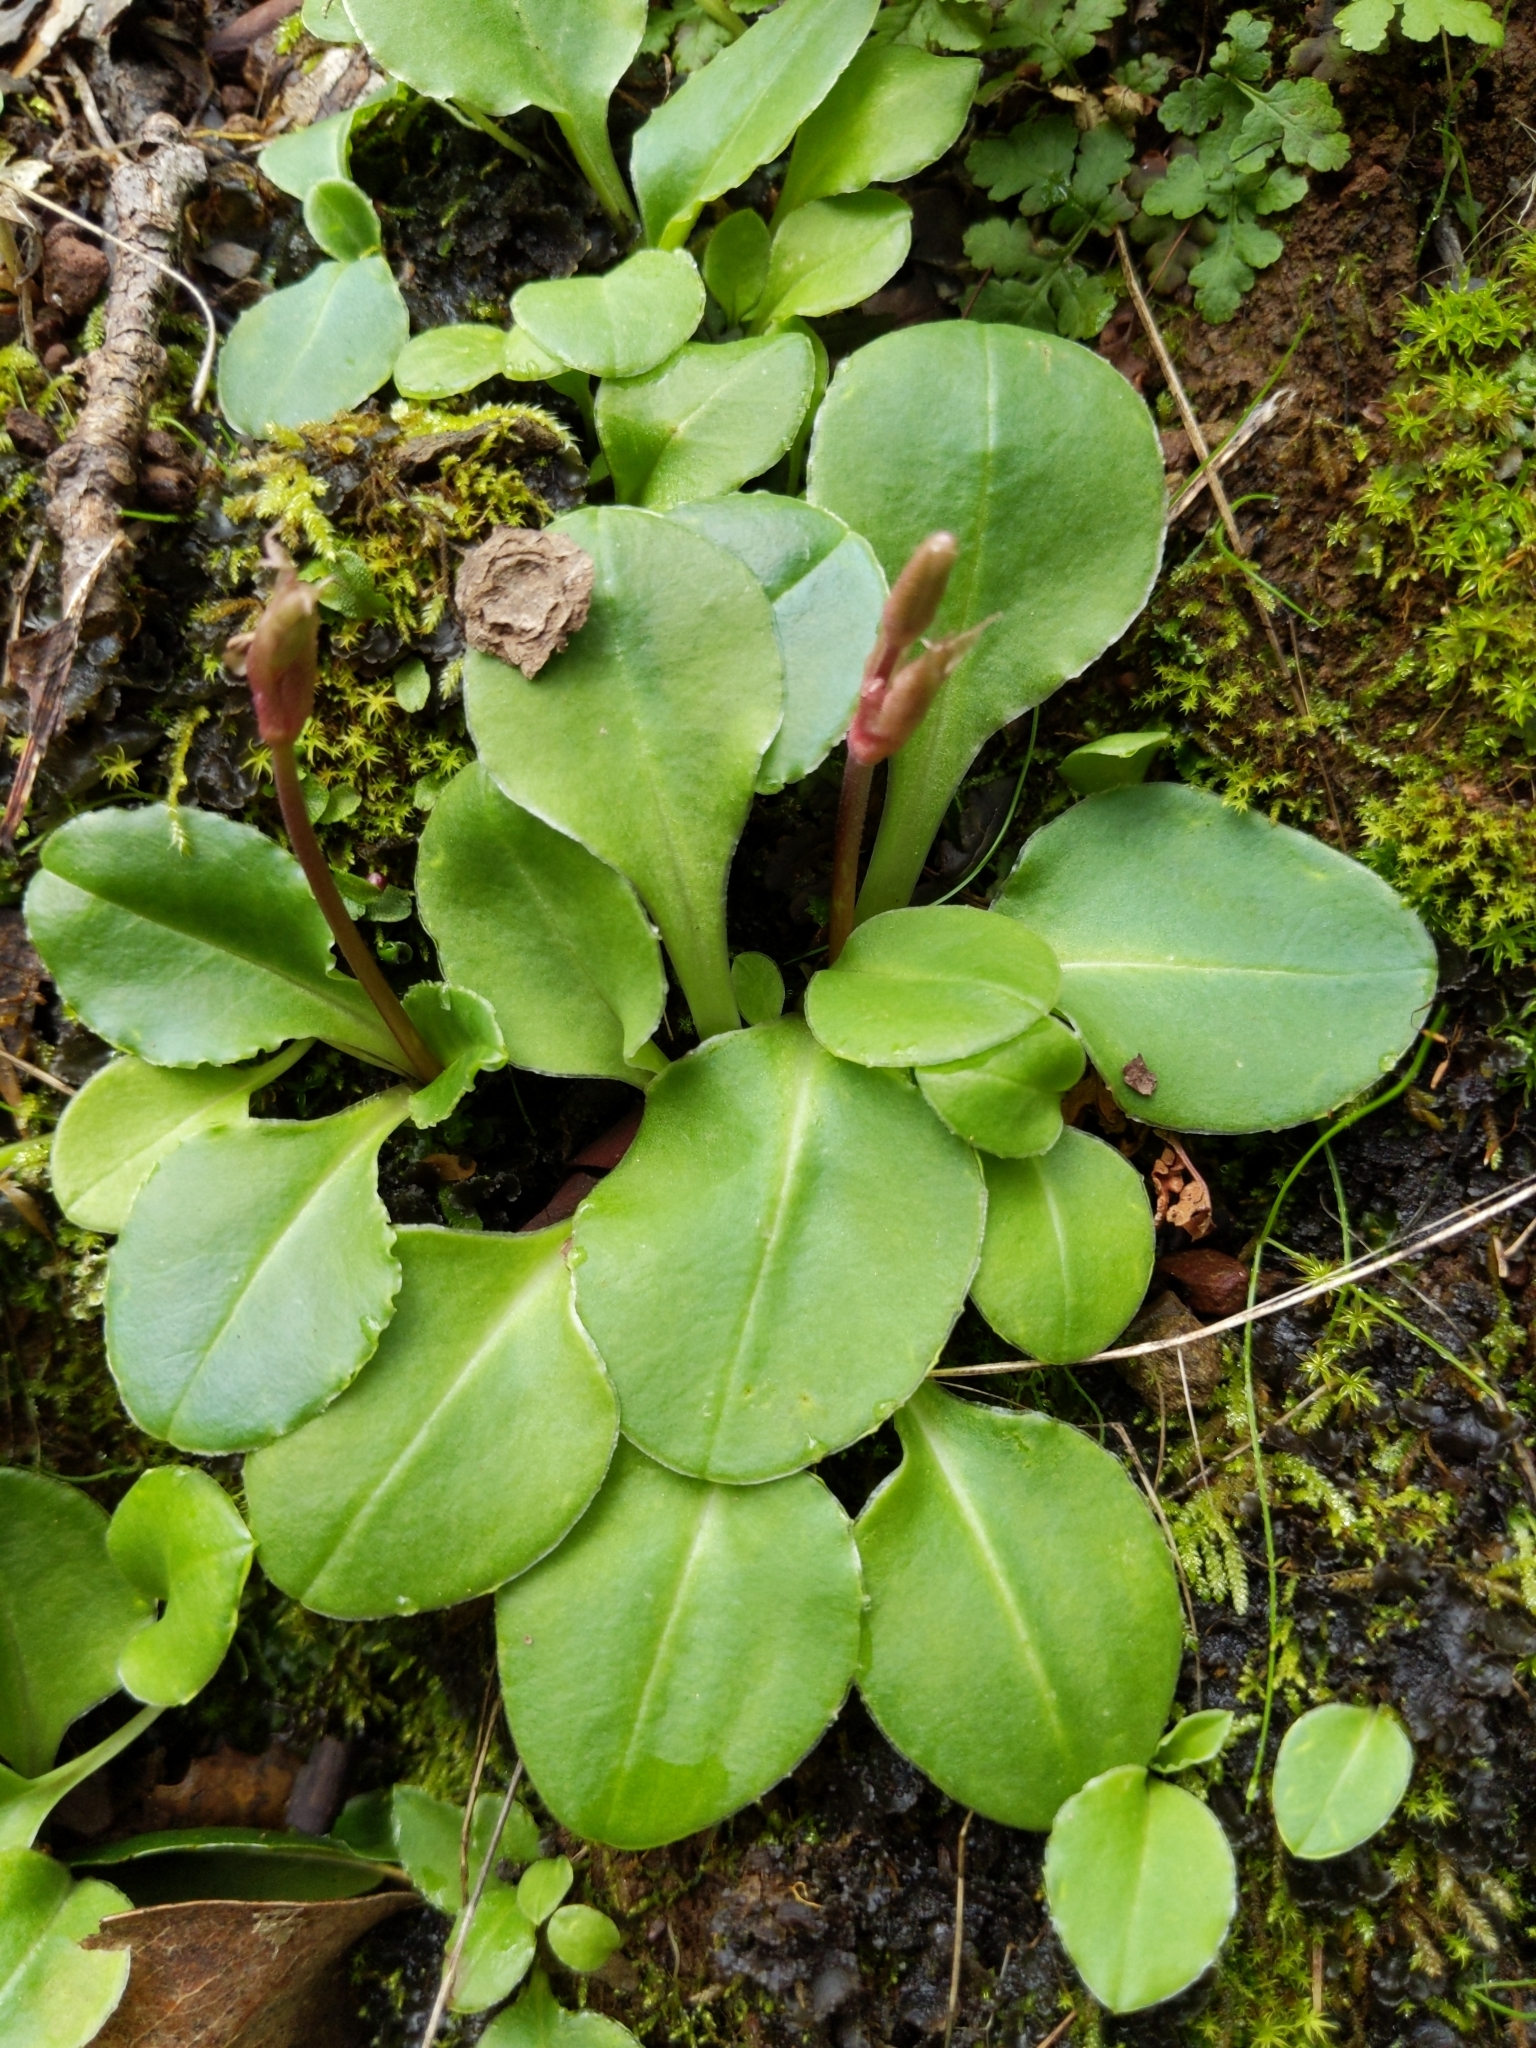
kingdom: Plantae
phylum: Tracheophyta
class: Magnoliopsida
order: Ericales
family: Primulaceae
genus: Dodecatheon
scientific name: Dodecatheon hendersonii
